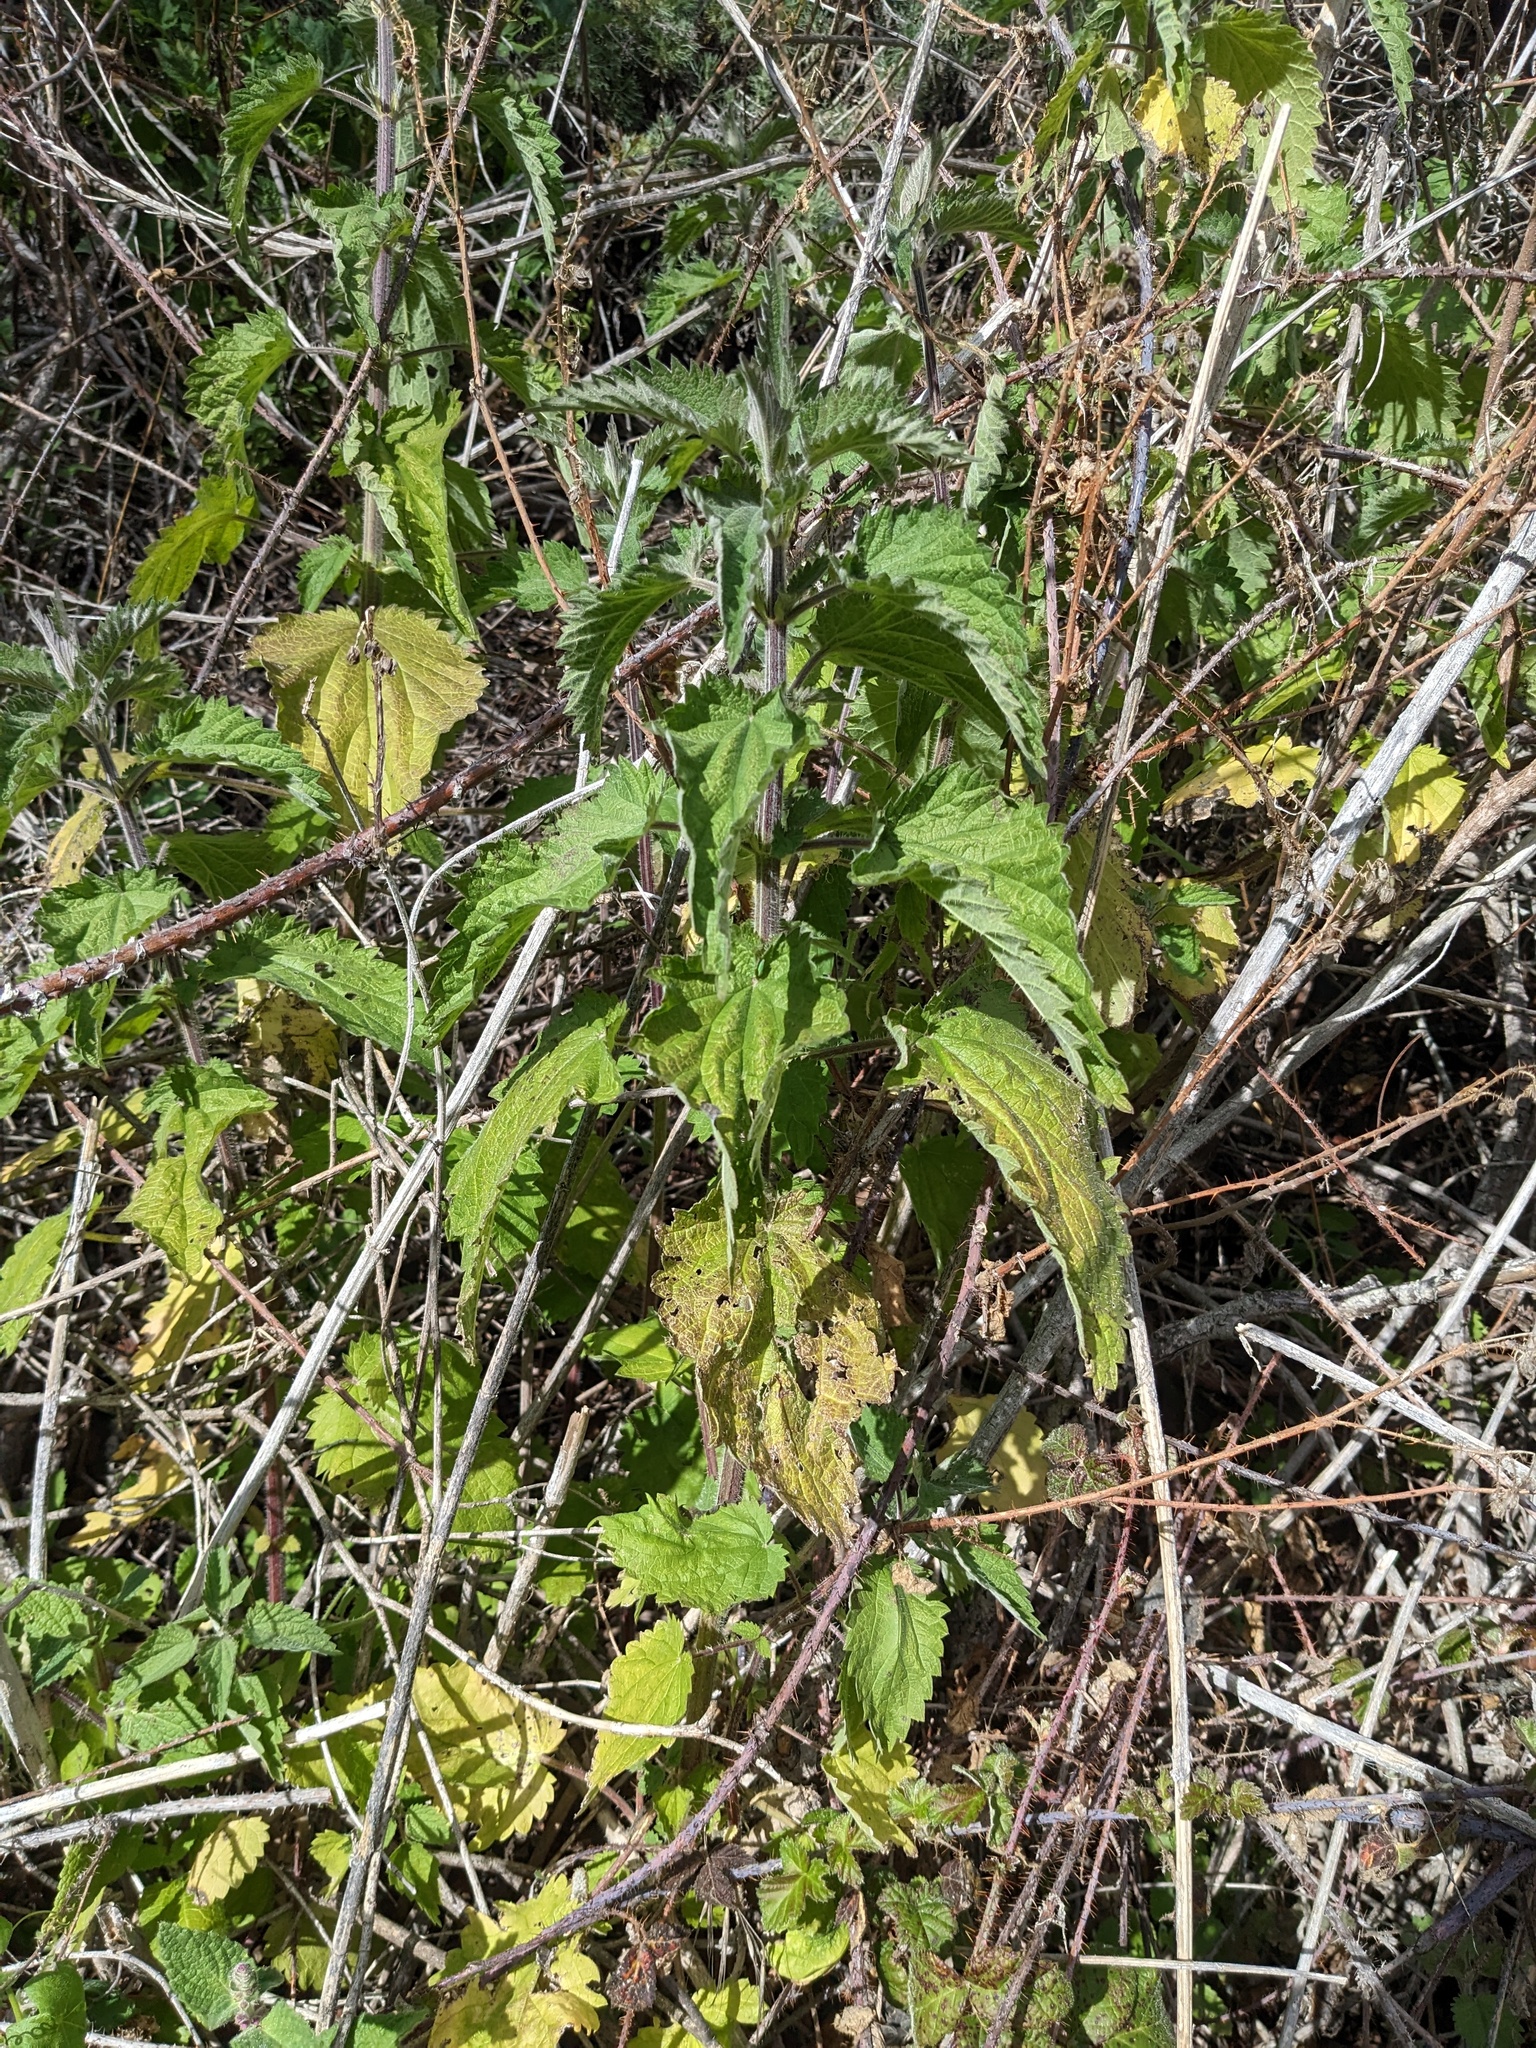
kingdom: Plantae
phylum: Tracheophyta
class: Magnoliopsida
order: Rosales
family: Urticaceae
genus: Urtica
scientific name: Urtica gracilis
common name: Slender stinging nettle
